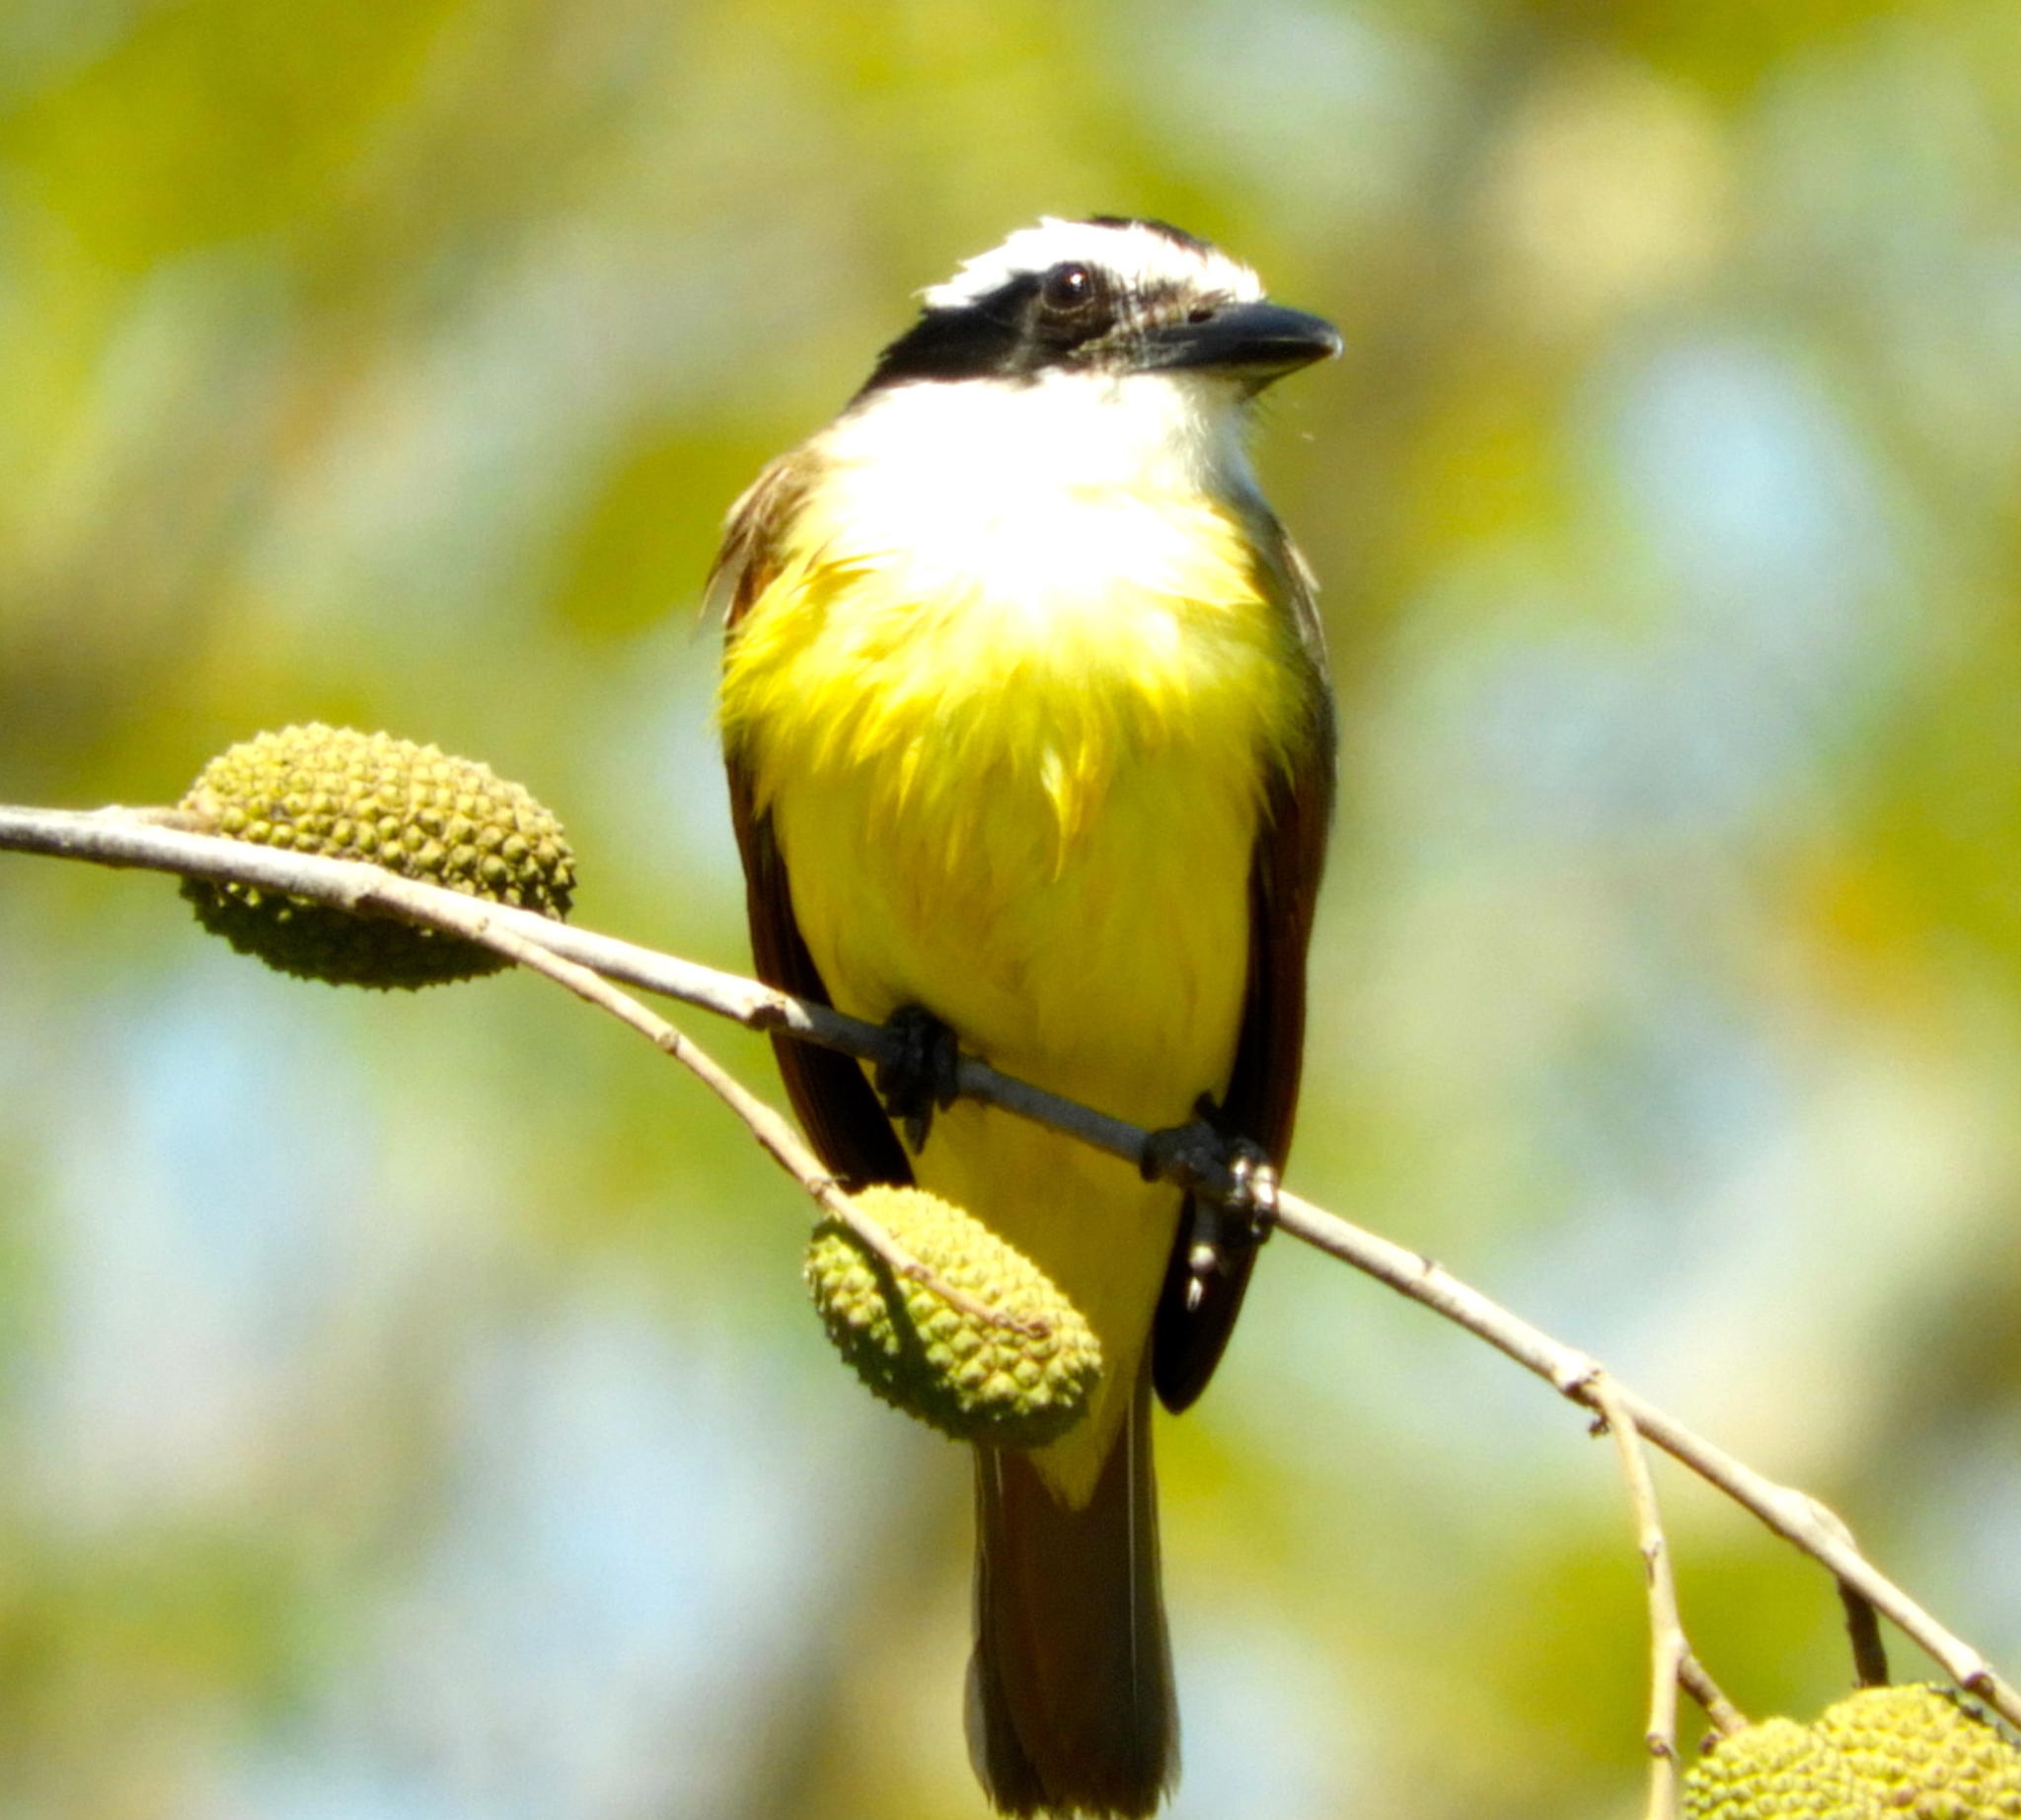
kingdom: Animalia
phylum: Chordata
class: Aves
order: Passeriformes
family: Tyrannidae
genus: Pitangus
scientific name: Pitangus sulphuratus
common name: Great kiskadee
